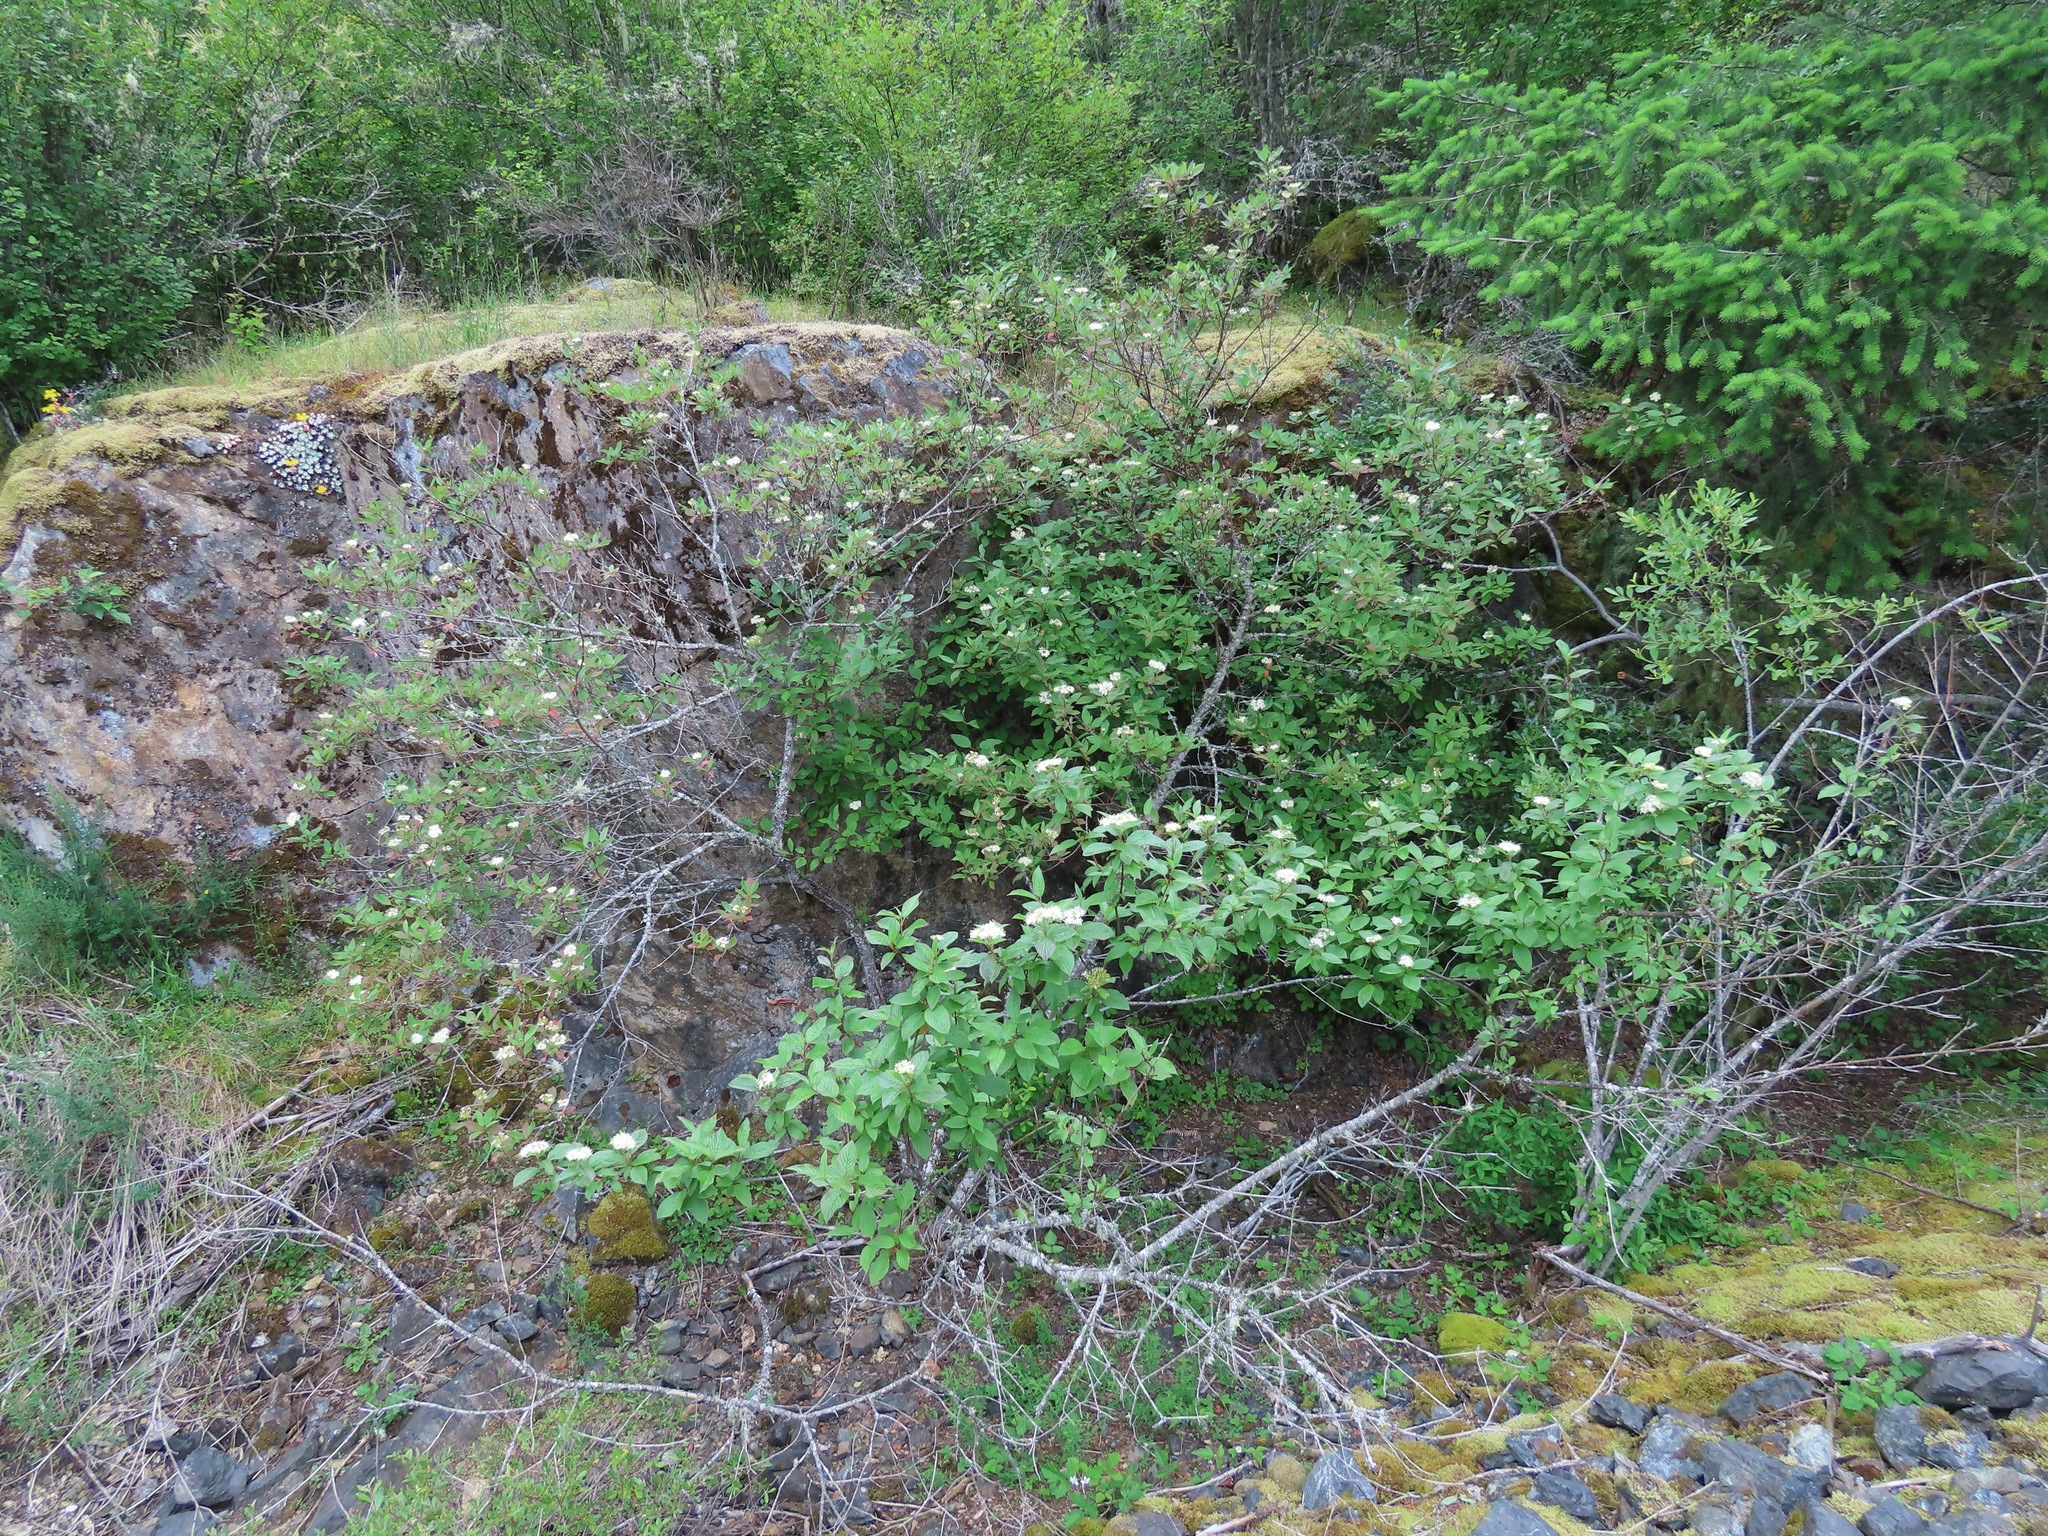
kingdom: Plantae
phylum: Tracheophyta
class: Magnoliopsida
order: Cornales
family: Cornaceae
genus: Cornus
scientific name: Cornus sericea
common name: Red-osier dogwood
